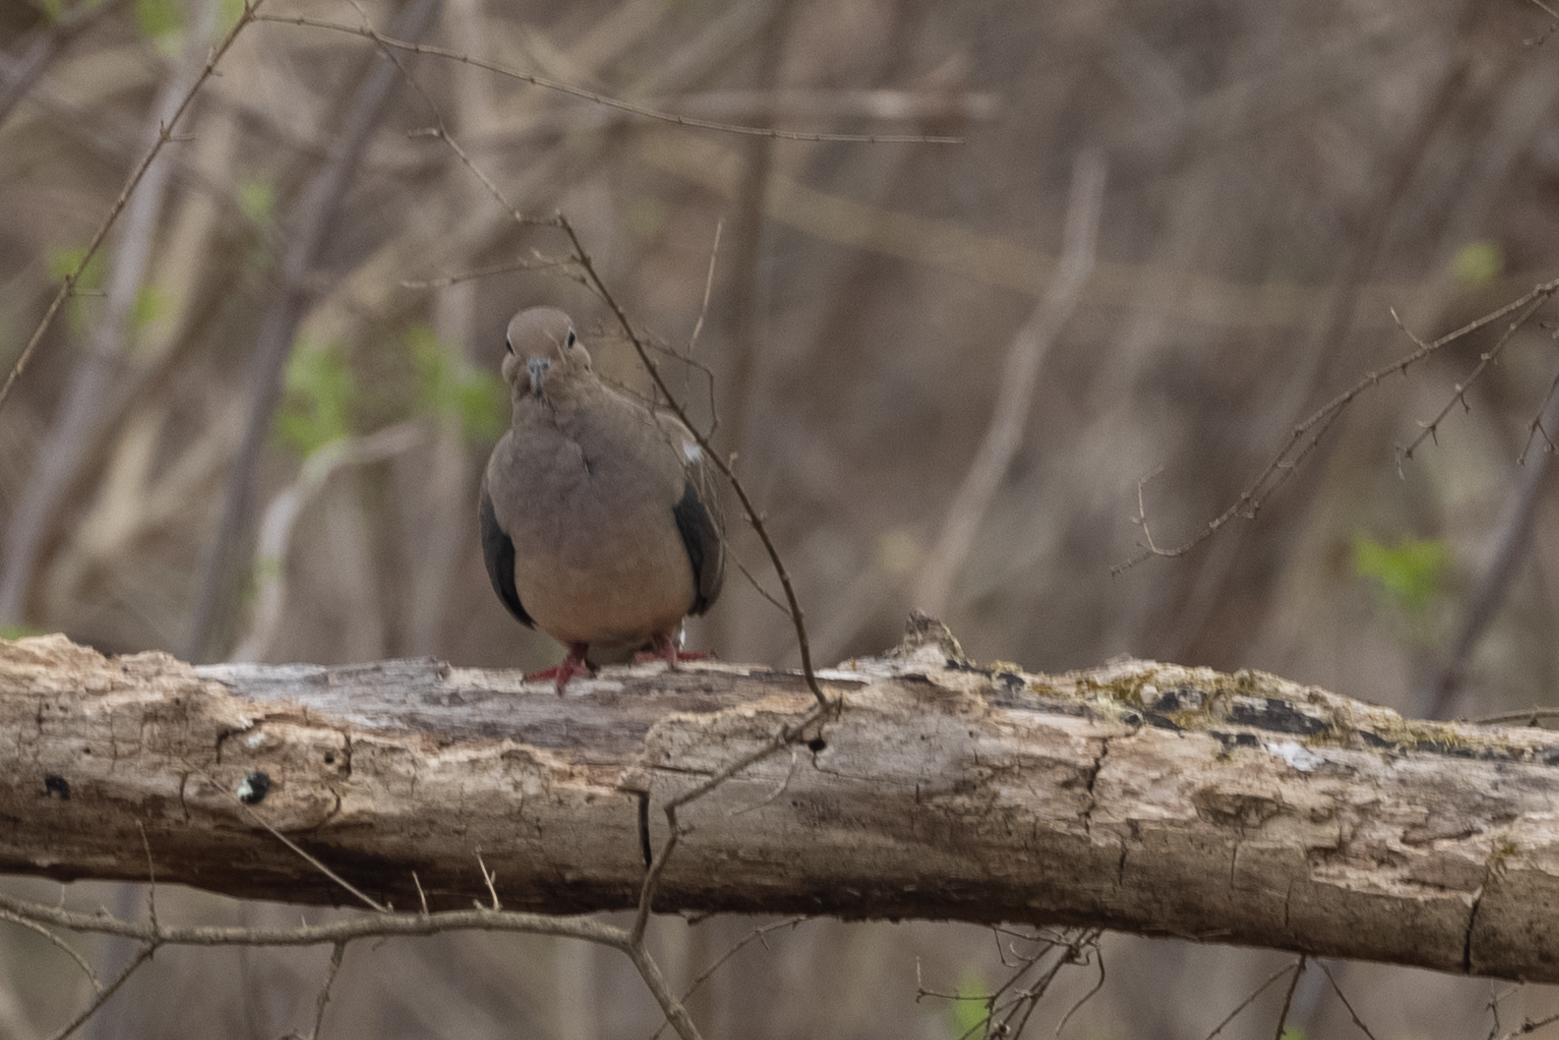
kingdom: Animalia
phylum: Chordata
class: Aves
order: Columbiformes
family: Columbidae
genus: Zenaida
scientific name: Zenaida macroura
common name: Mourning dove
